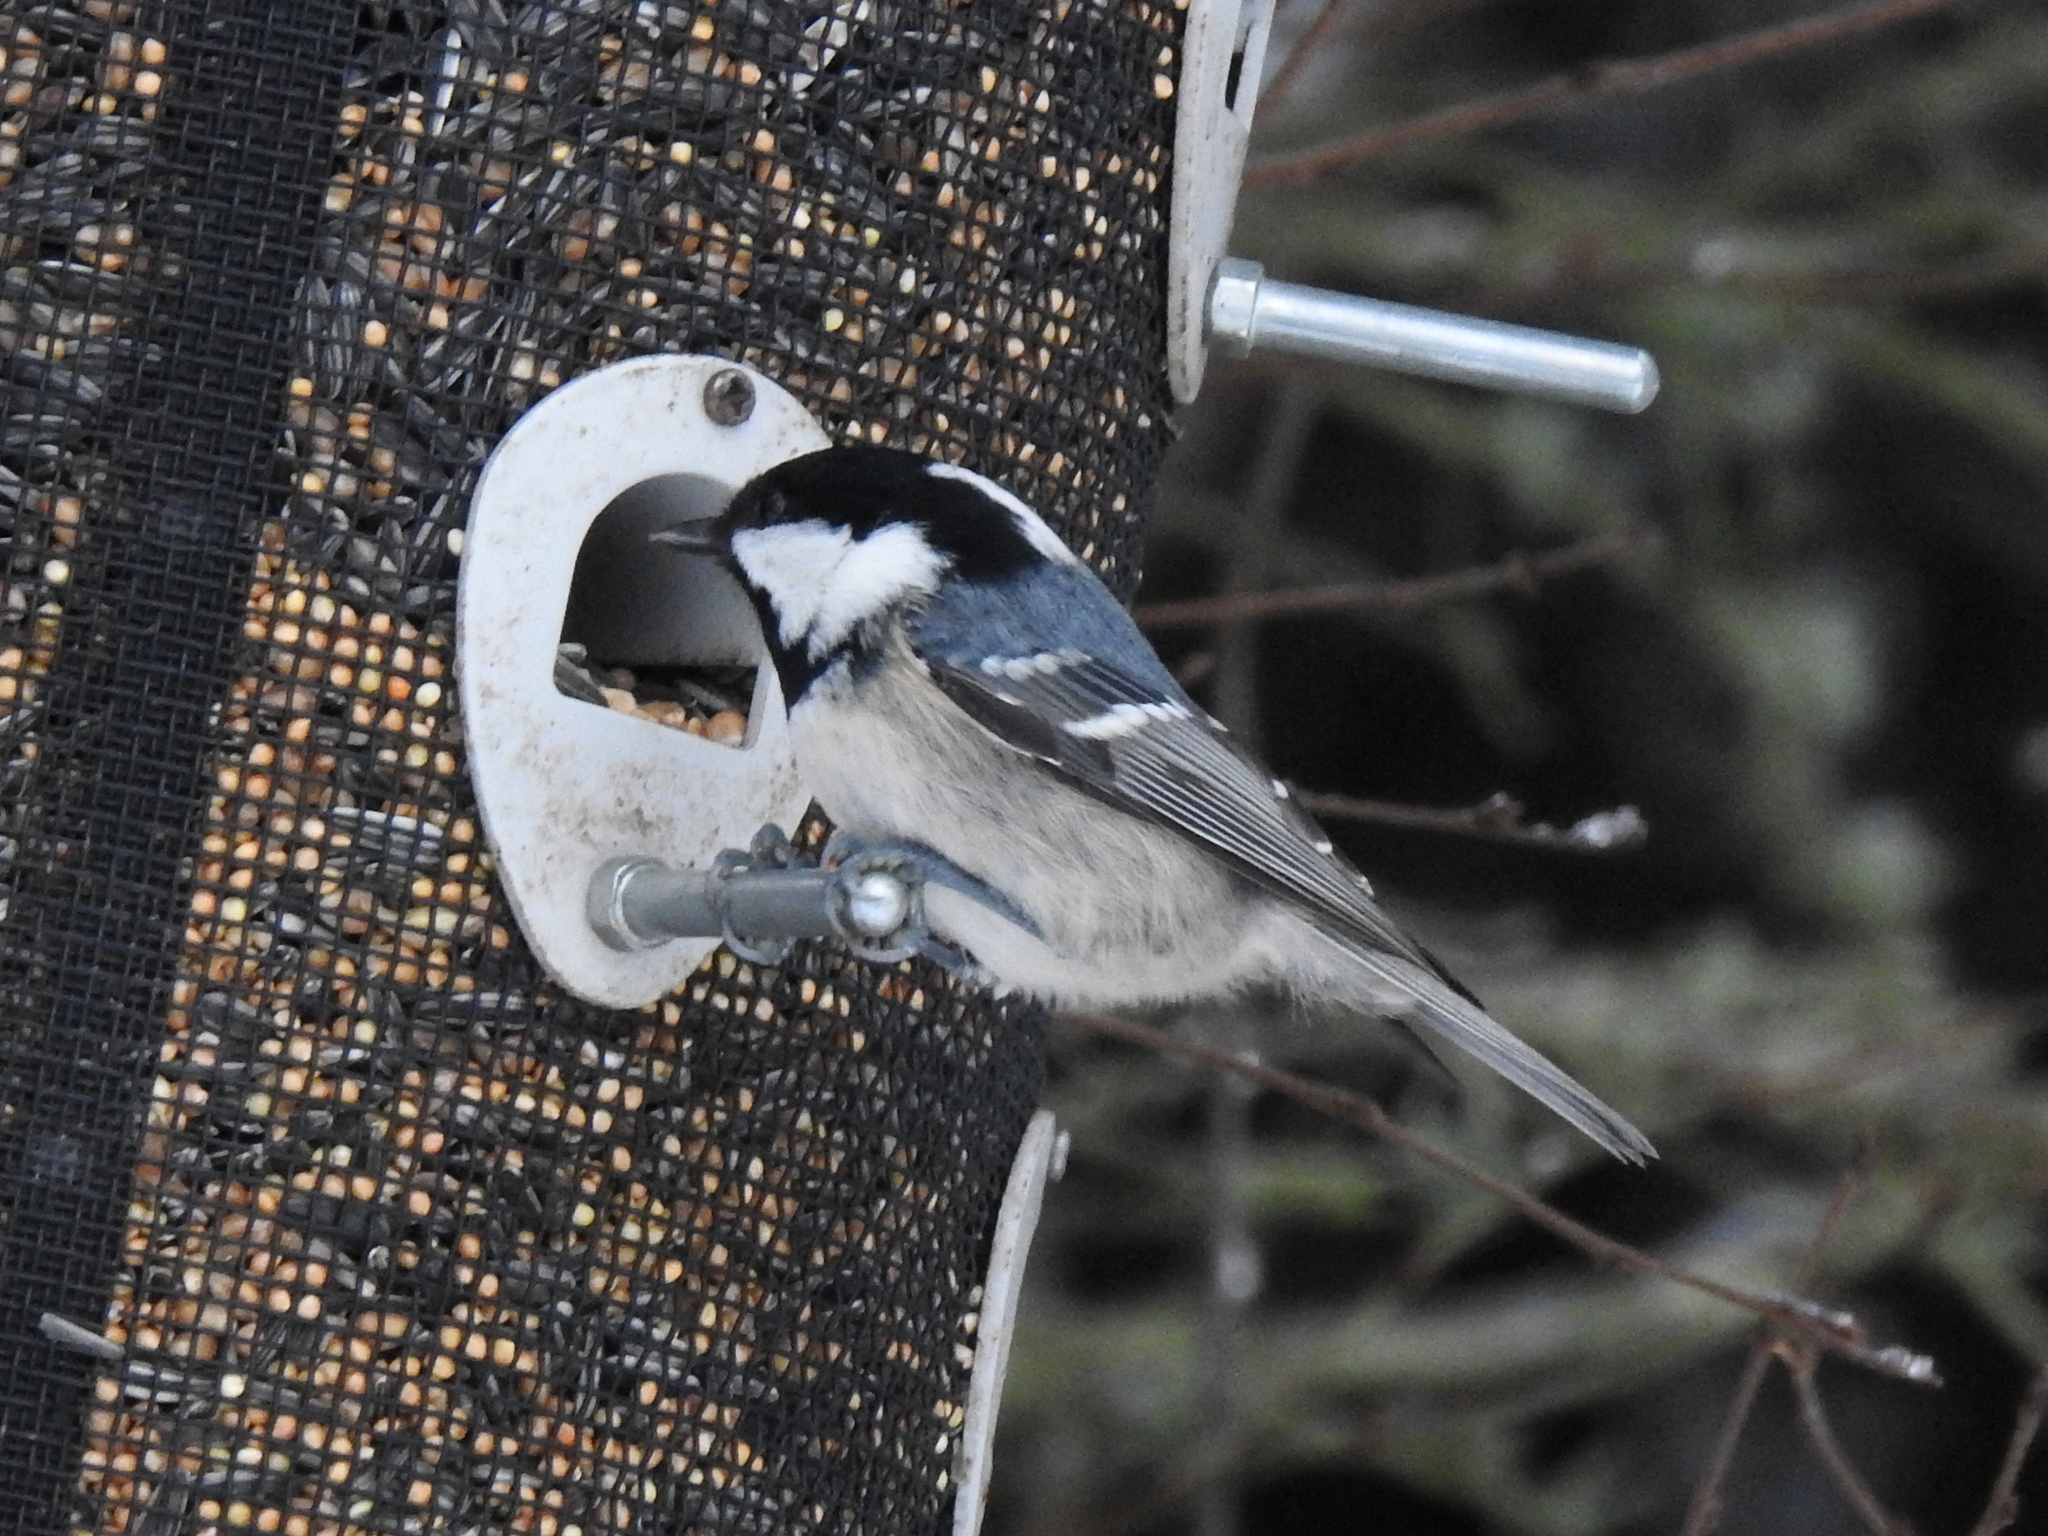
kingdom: Animalia
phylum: Chordata
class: Aves
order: Passeriformes
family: Paridae
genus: Periparus
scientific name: Periparus ater
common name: Coal tit
